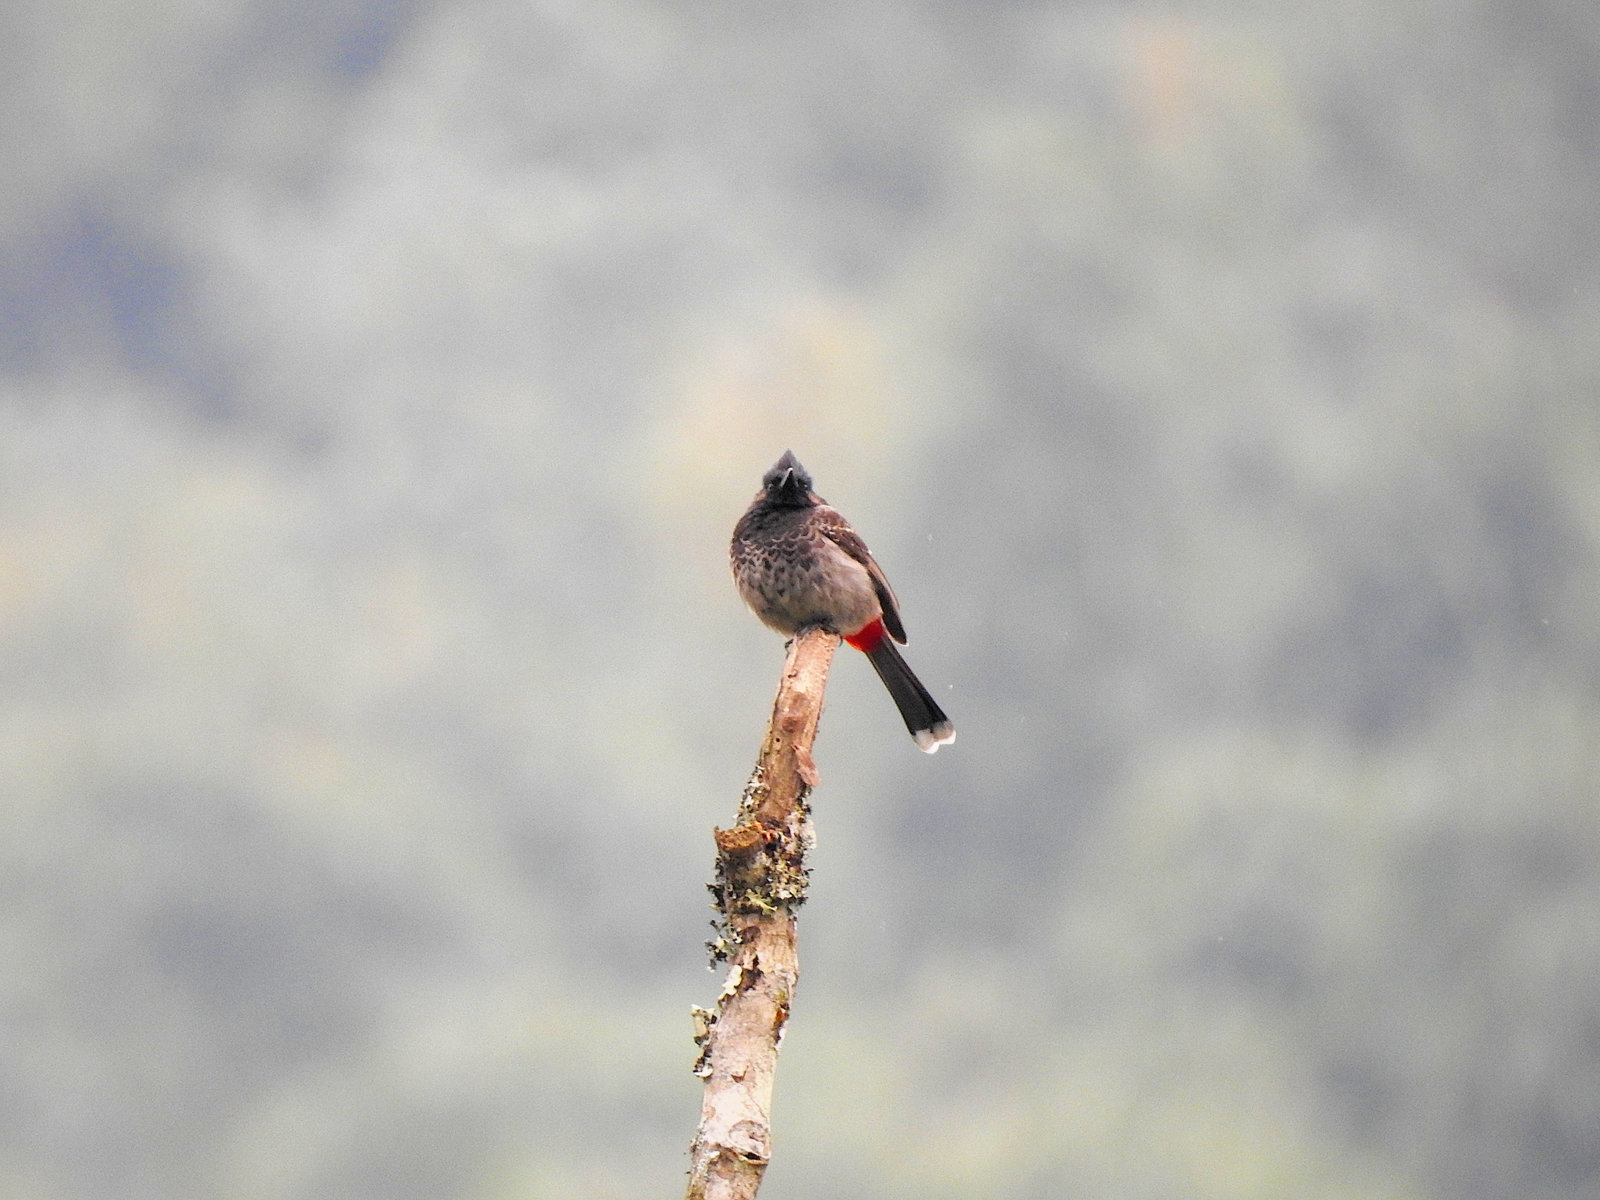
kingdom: Animalia
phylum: Chordata
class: Aves
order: Passeriformes
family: Pycnonotidae
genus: Pycnonotus
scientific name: Pycnonotus cafer
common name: Red-vented bulbul
